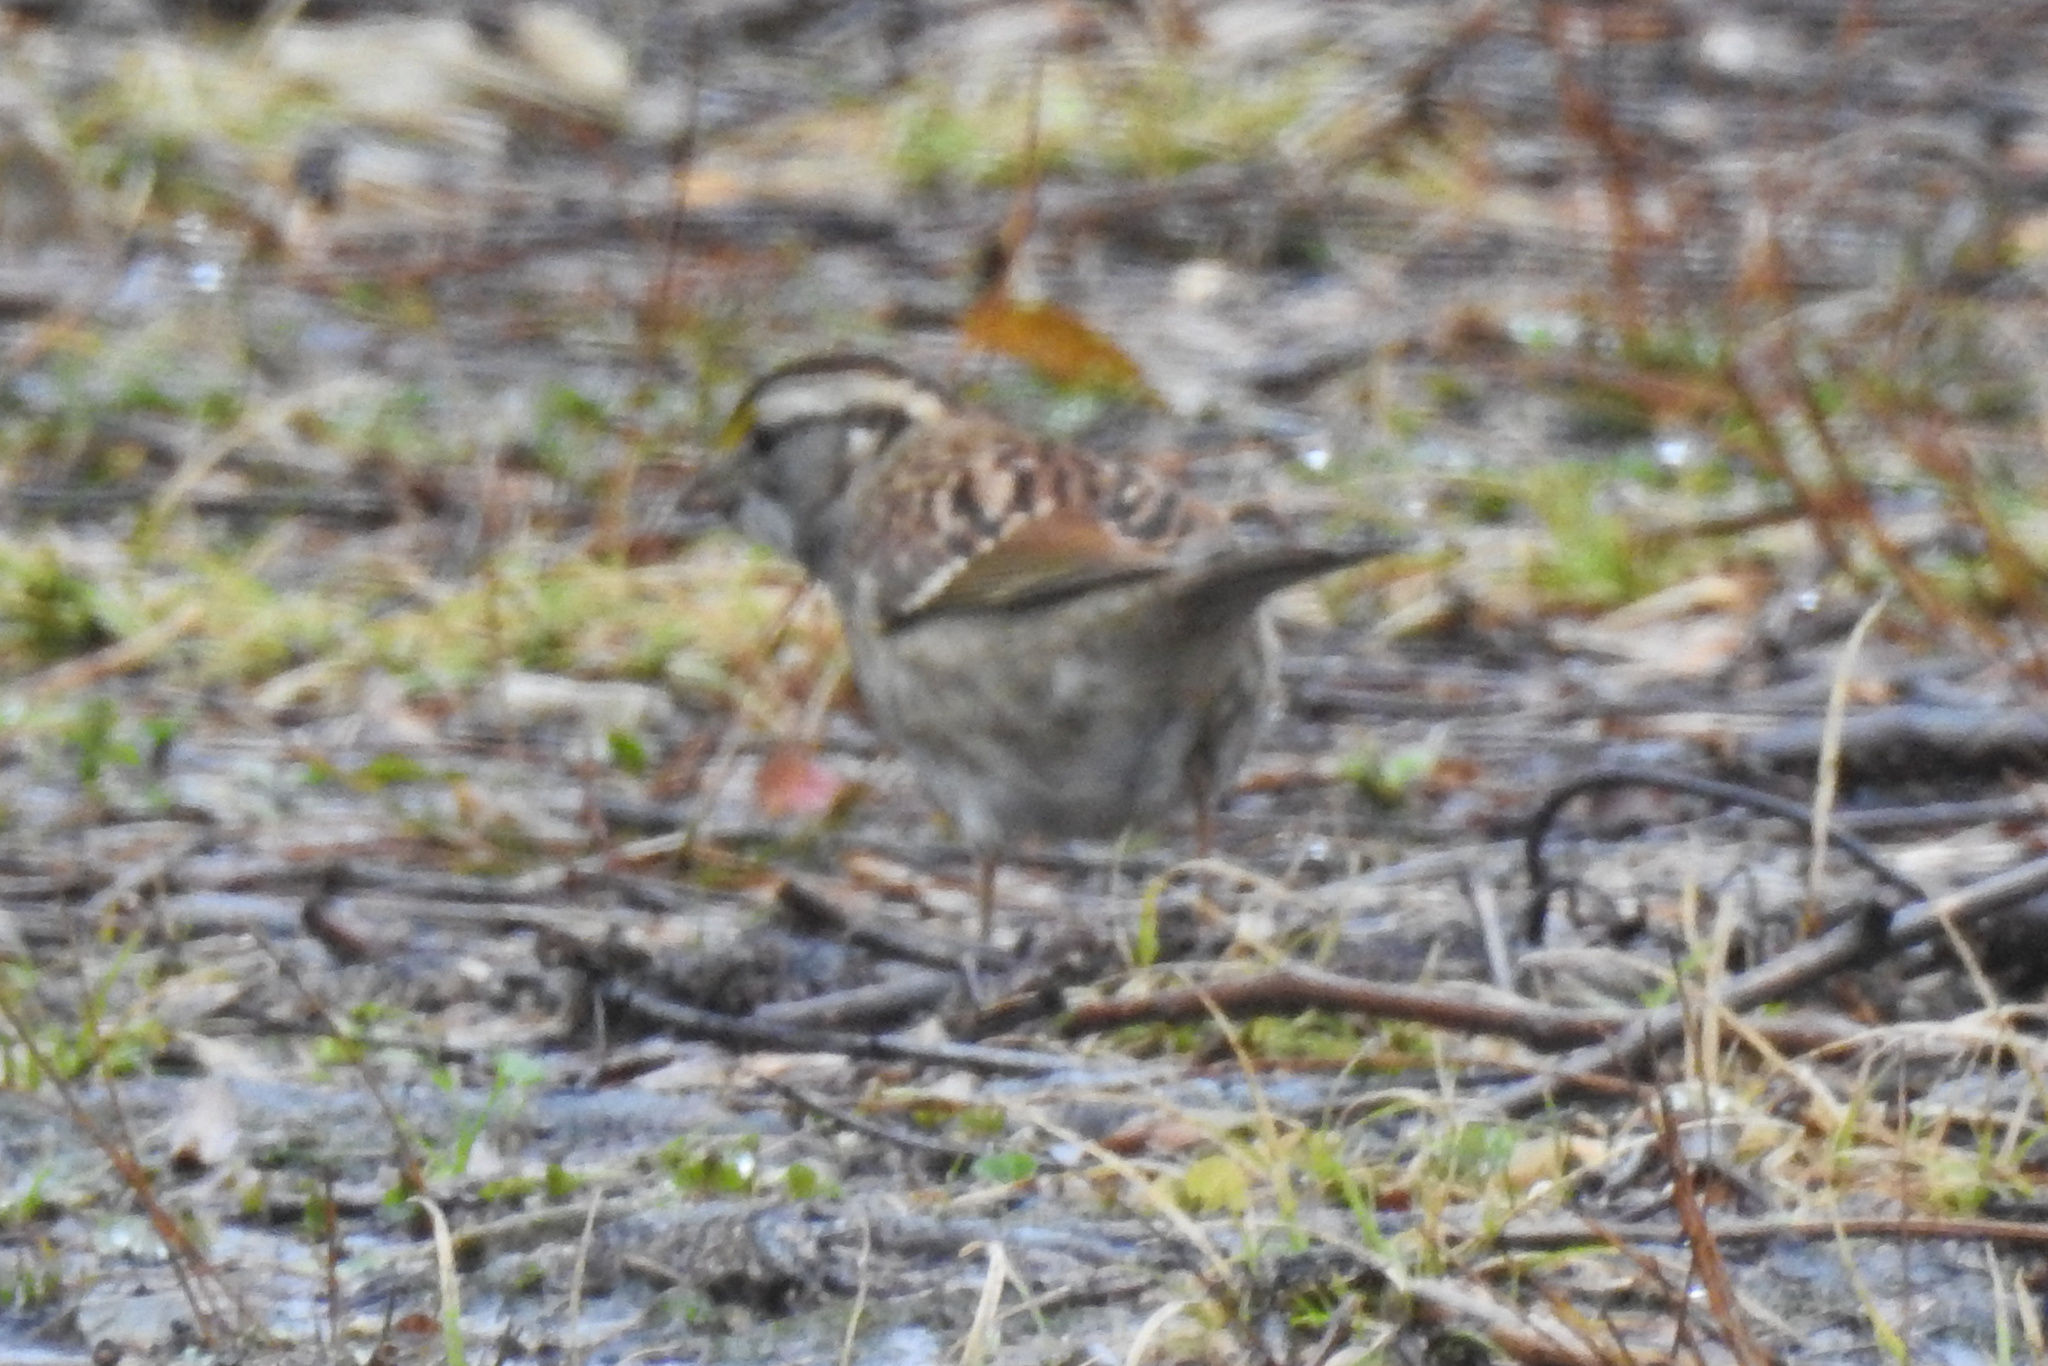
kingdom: Animalia
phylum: Chordata
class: Aves
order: Passeriformes
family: Passerellidae
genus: Zonotrichia
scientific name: Zonotrichia albicollis
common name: White-throated sparrow
